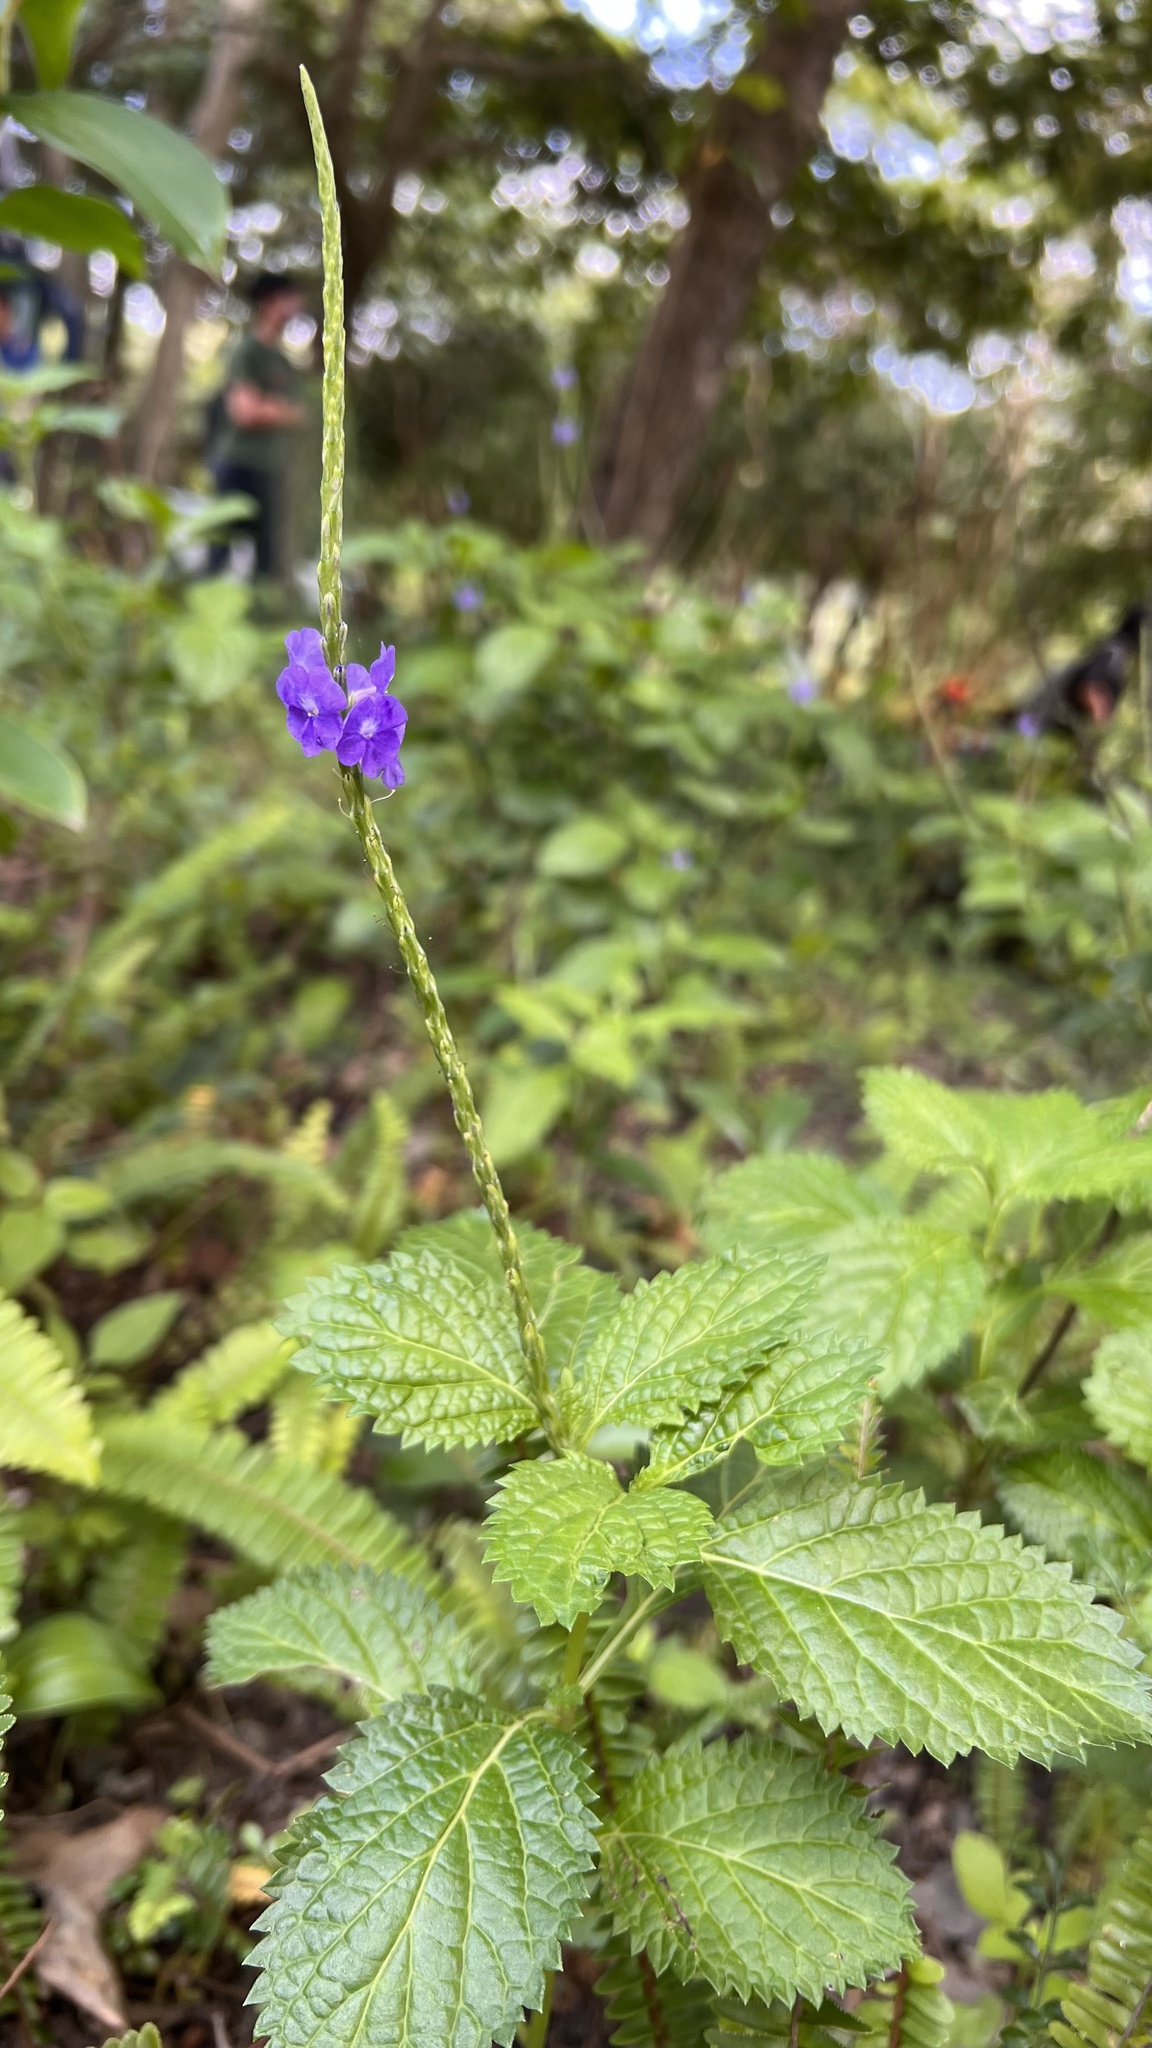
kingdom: Plantae
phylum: Tracheophyta
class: Magnoliopsida
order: Lamiales
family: Verbenaceae
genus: Stachytarpheta
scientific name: Stachytarpheta urticifolia
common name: Nettleleaf velvetberry
